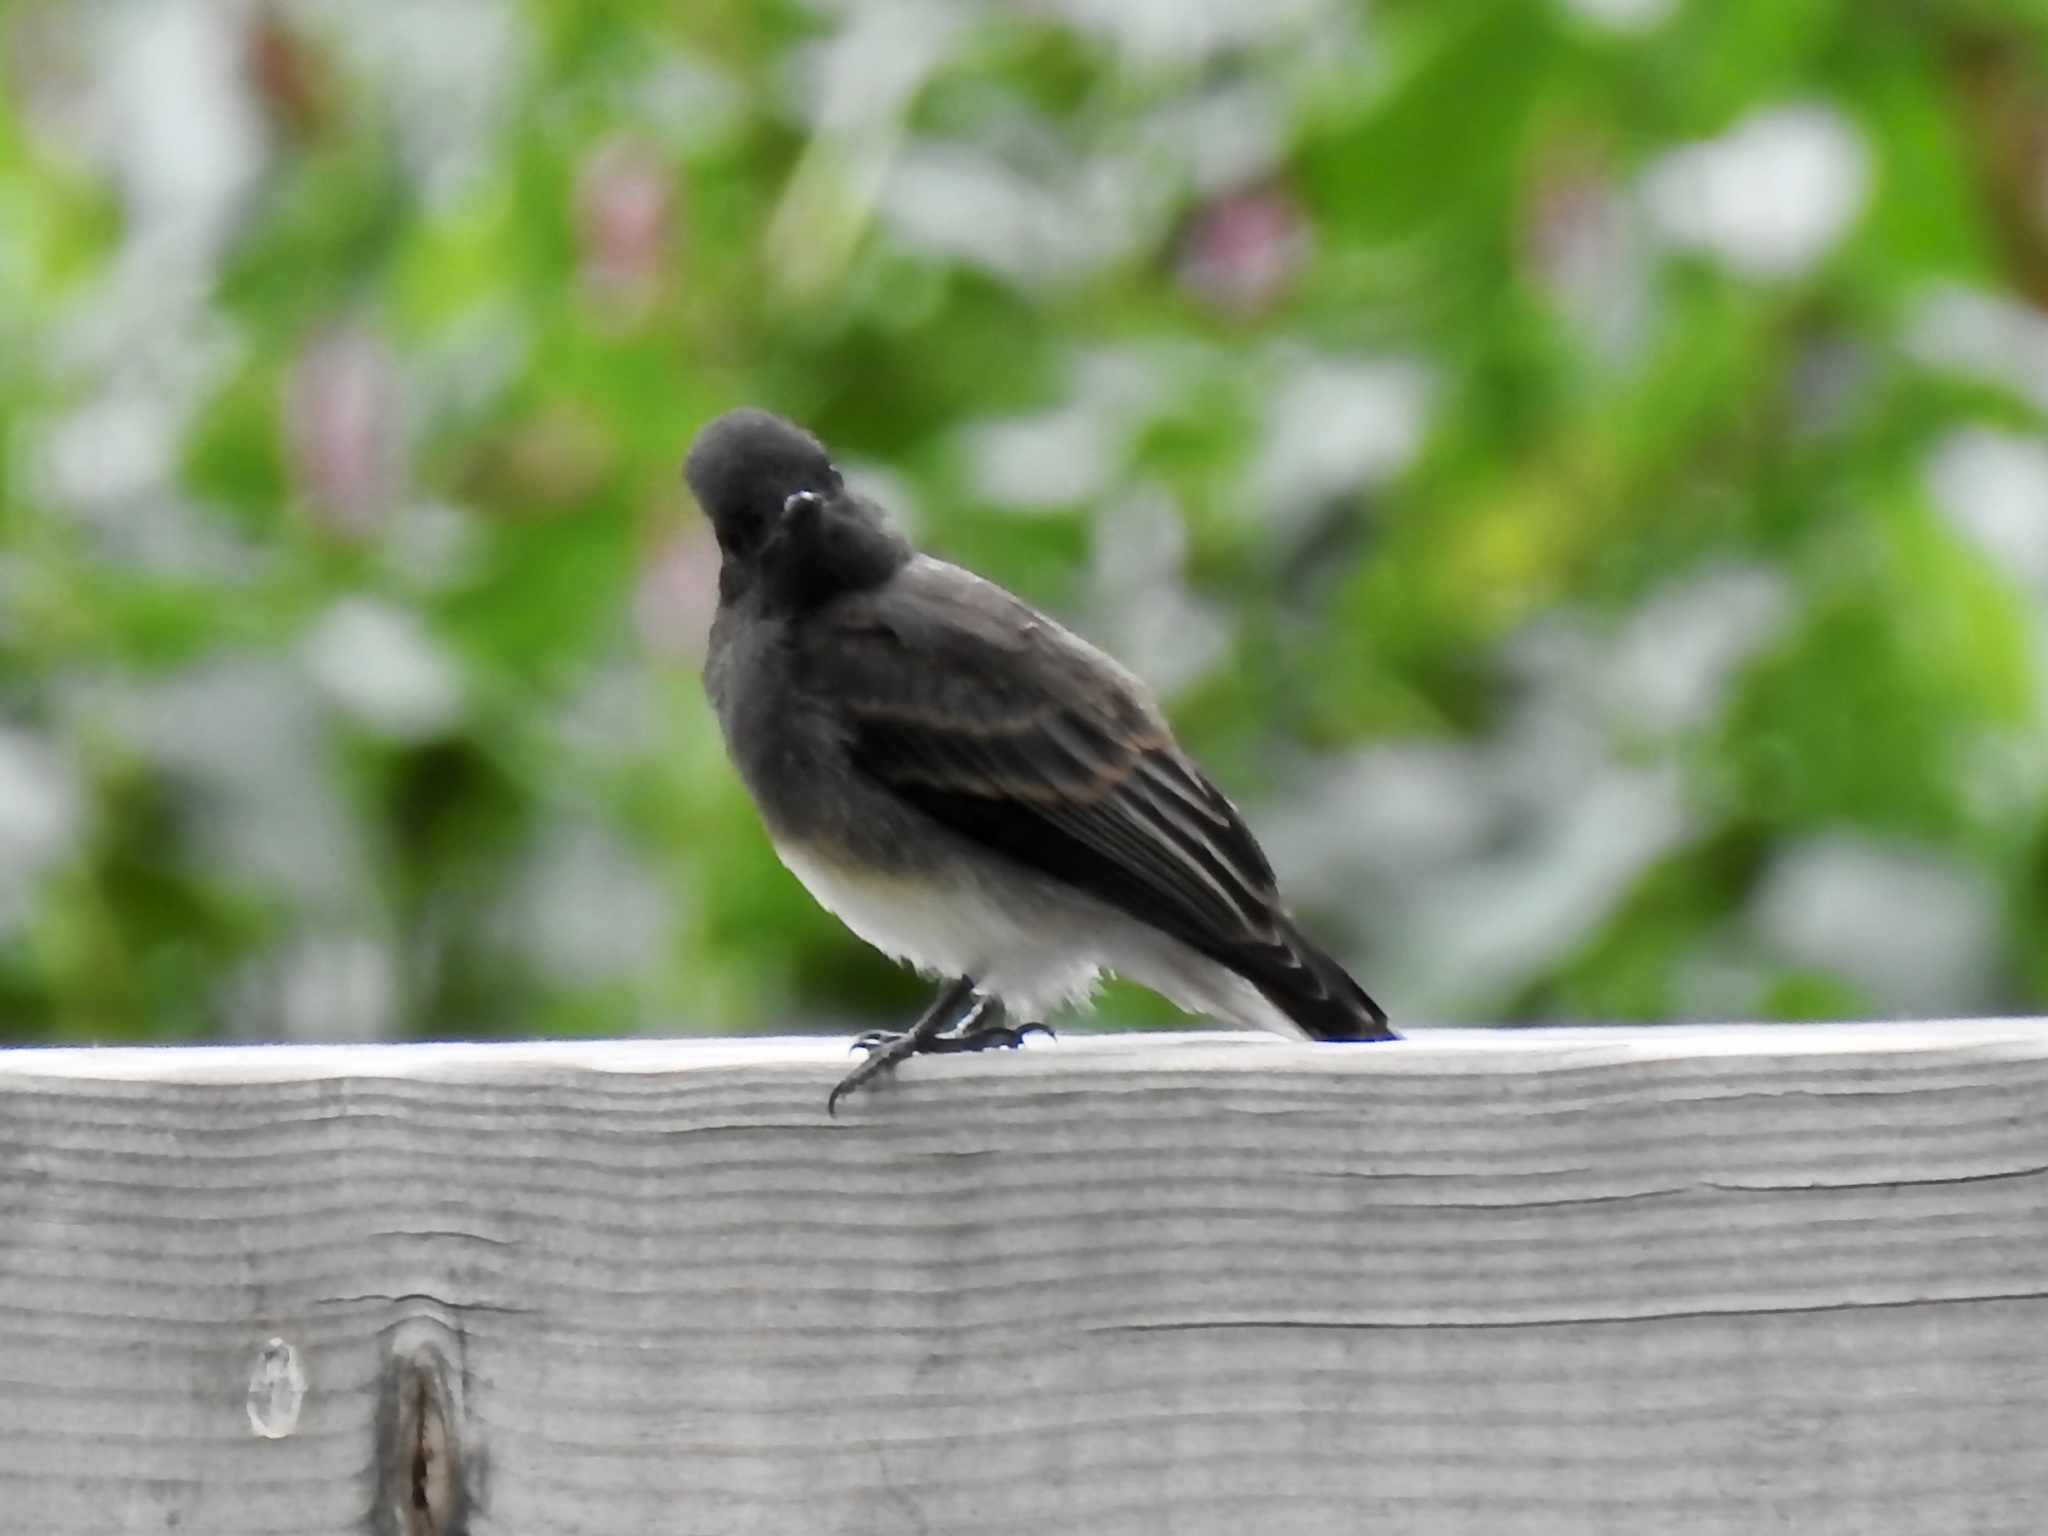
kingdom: Animalia
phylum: Chordata
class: Aves
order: Passeriformes
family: Tyrannidae
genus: Sayornis
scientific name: Sayornis nigricans
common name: Black phoebe
